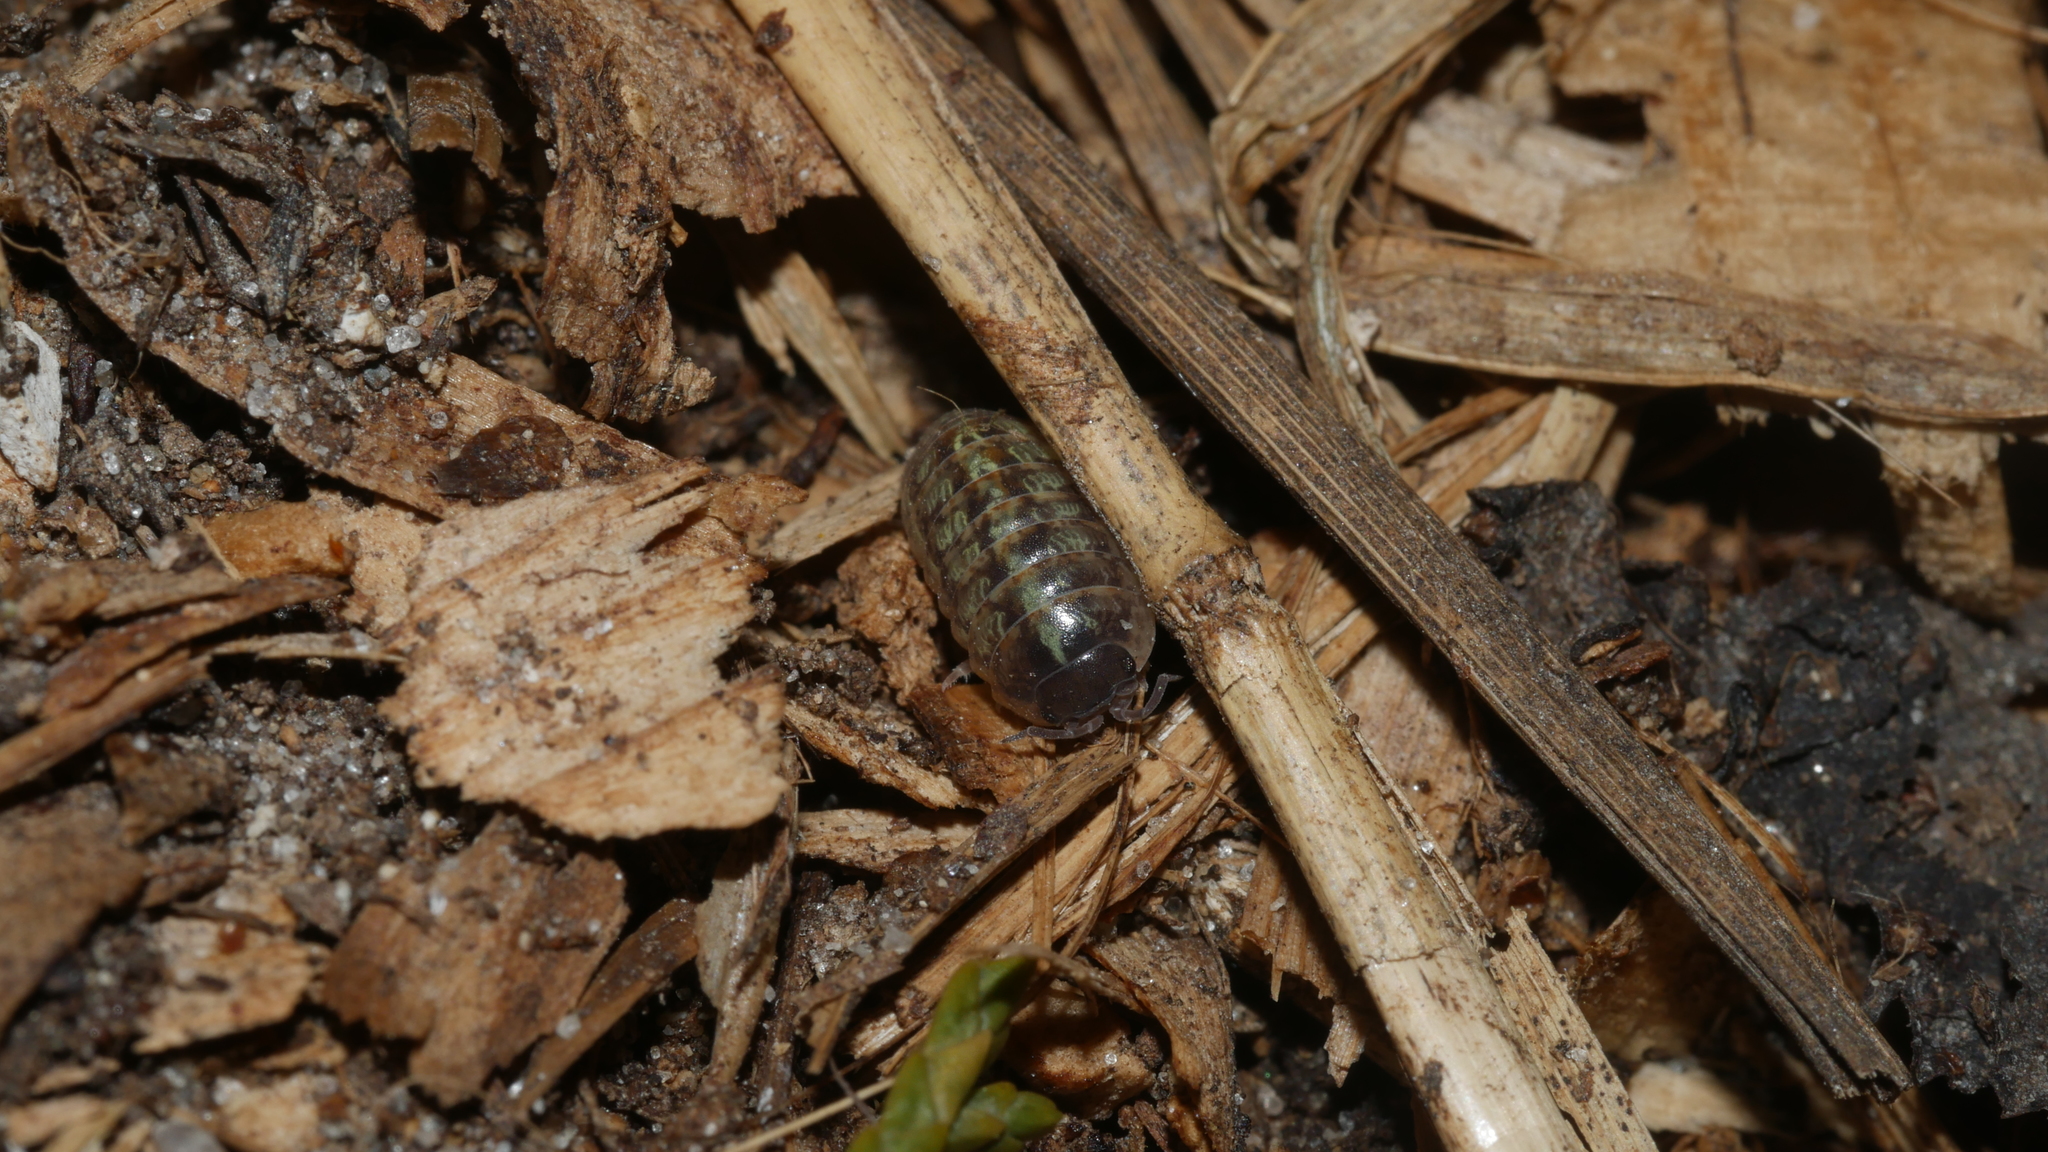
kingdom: Animalia
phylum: Arthropoda
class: Malacostraca
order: Isopoda
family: Armadillidiidae
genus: Armadillidium
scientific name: Armadillidium vulgare
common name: Common pill woodlouse
